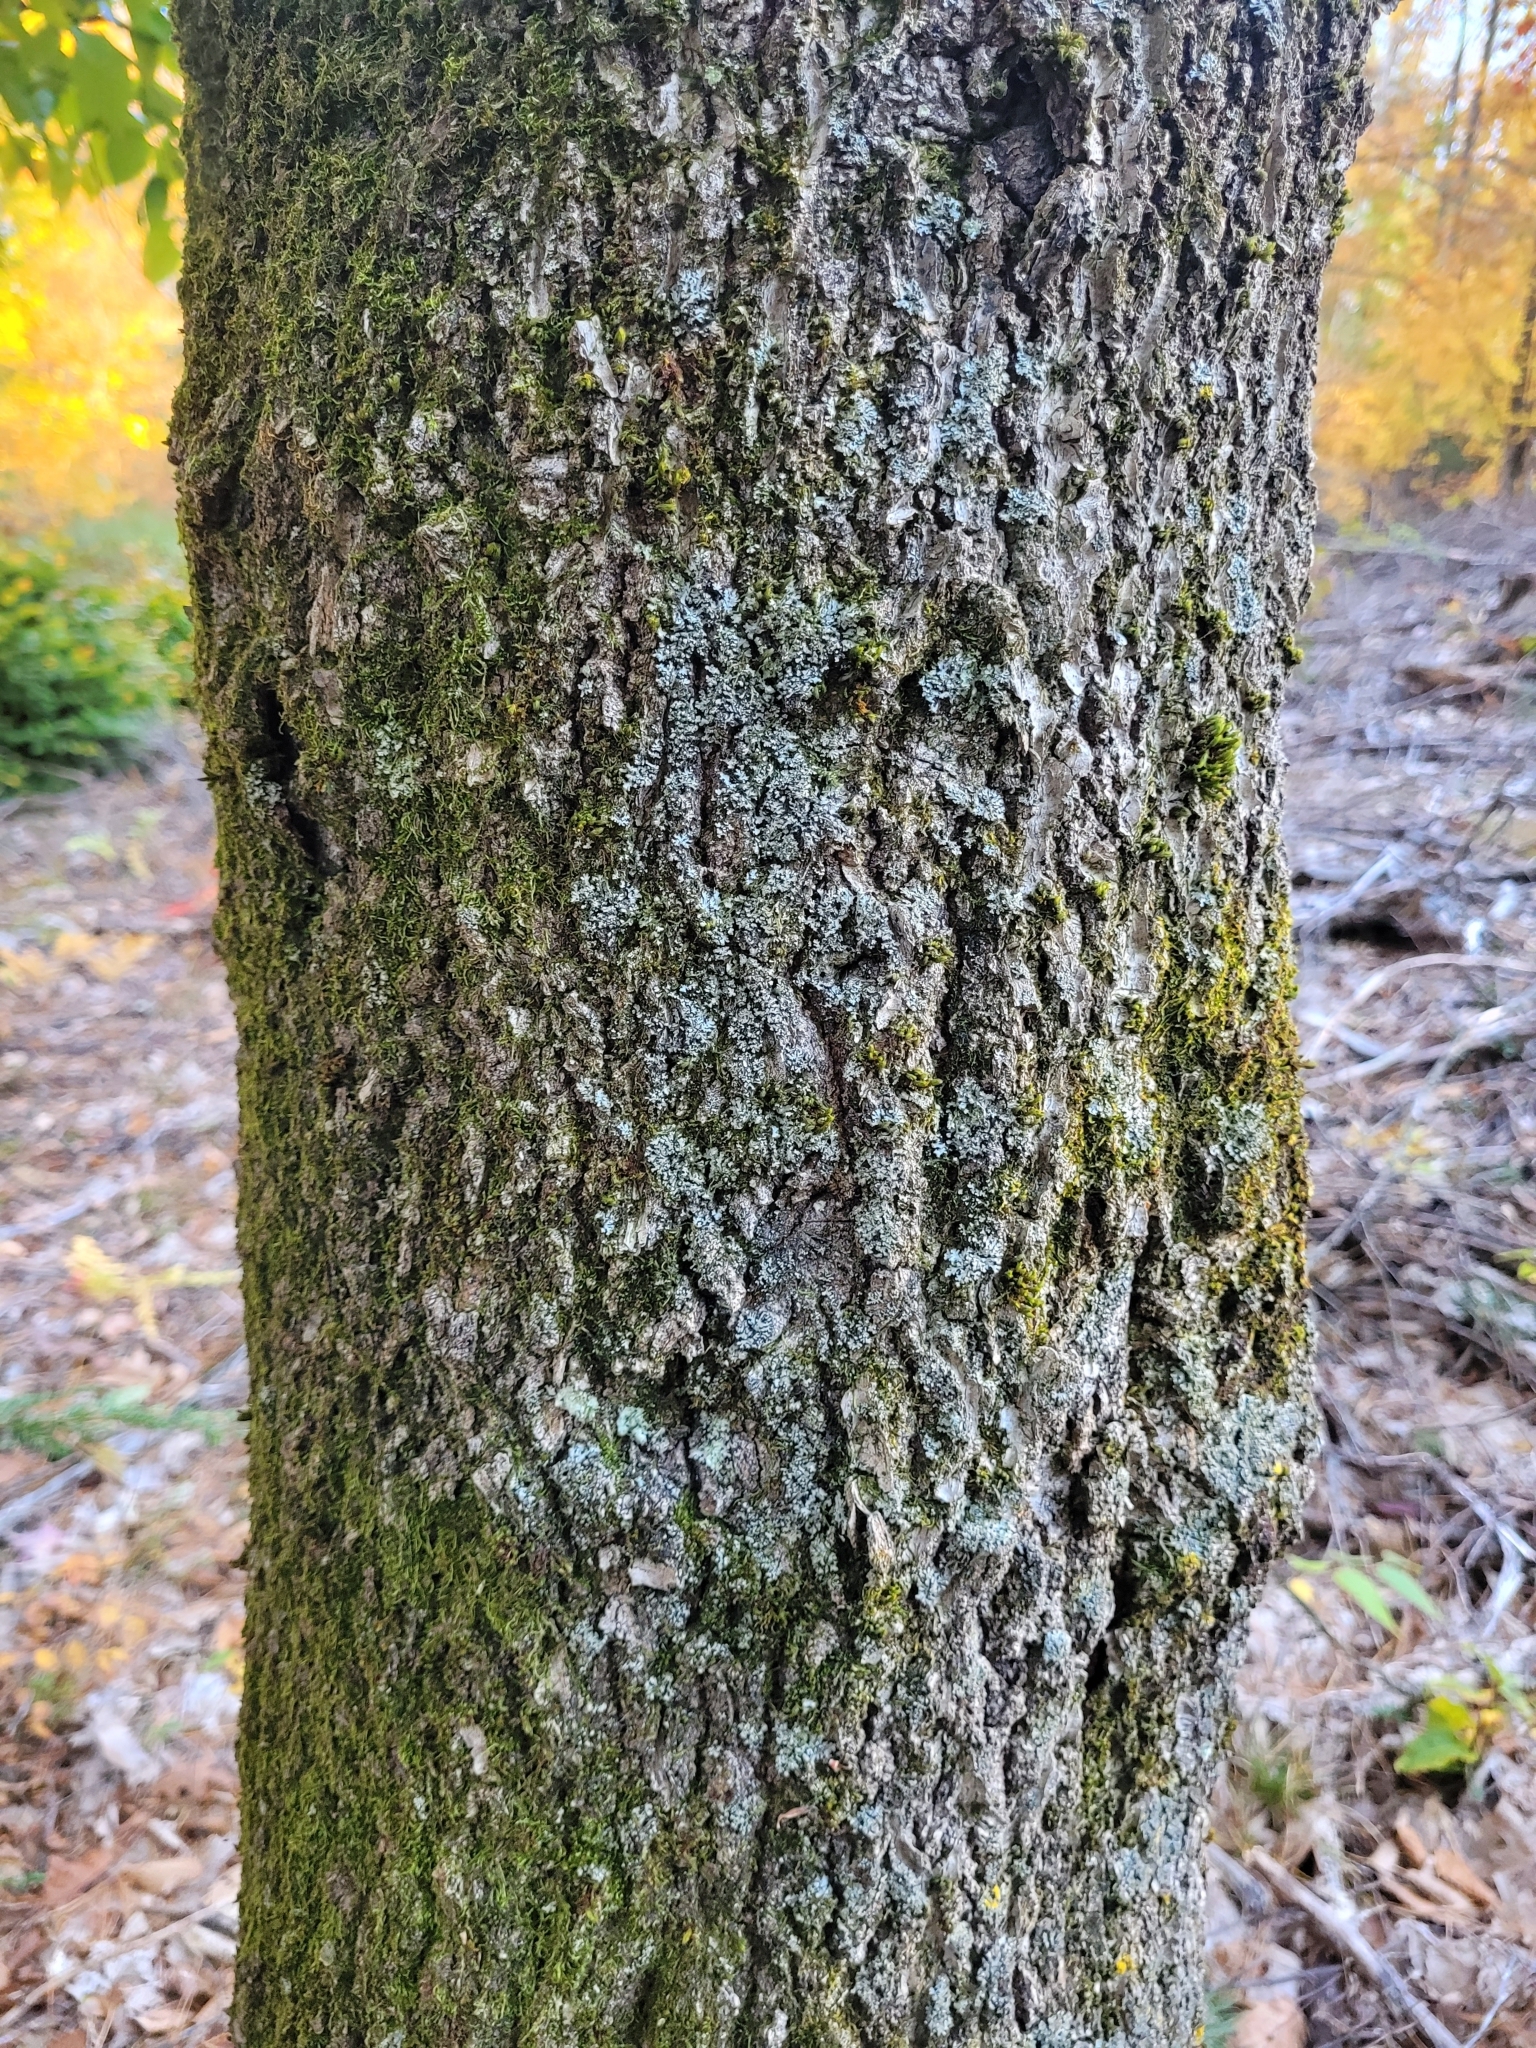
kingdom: Plantae
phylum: Tracheophyta
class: Magnoliopsida
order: Fagales
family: Fagaceae
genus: Fagus
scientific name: Fagus grandifolia
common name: American beech
